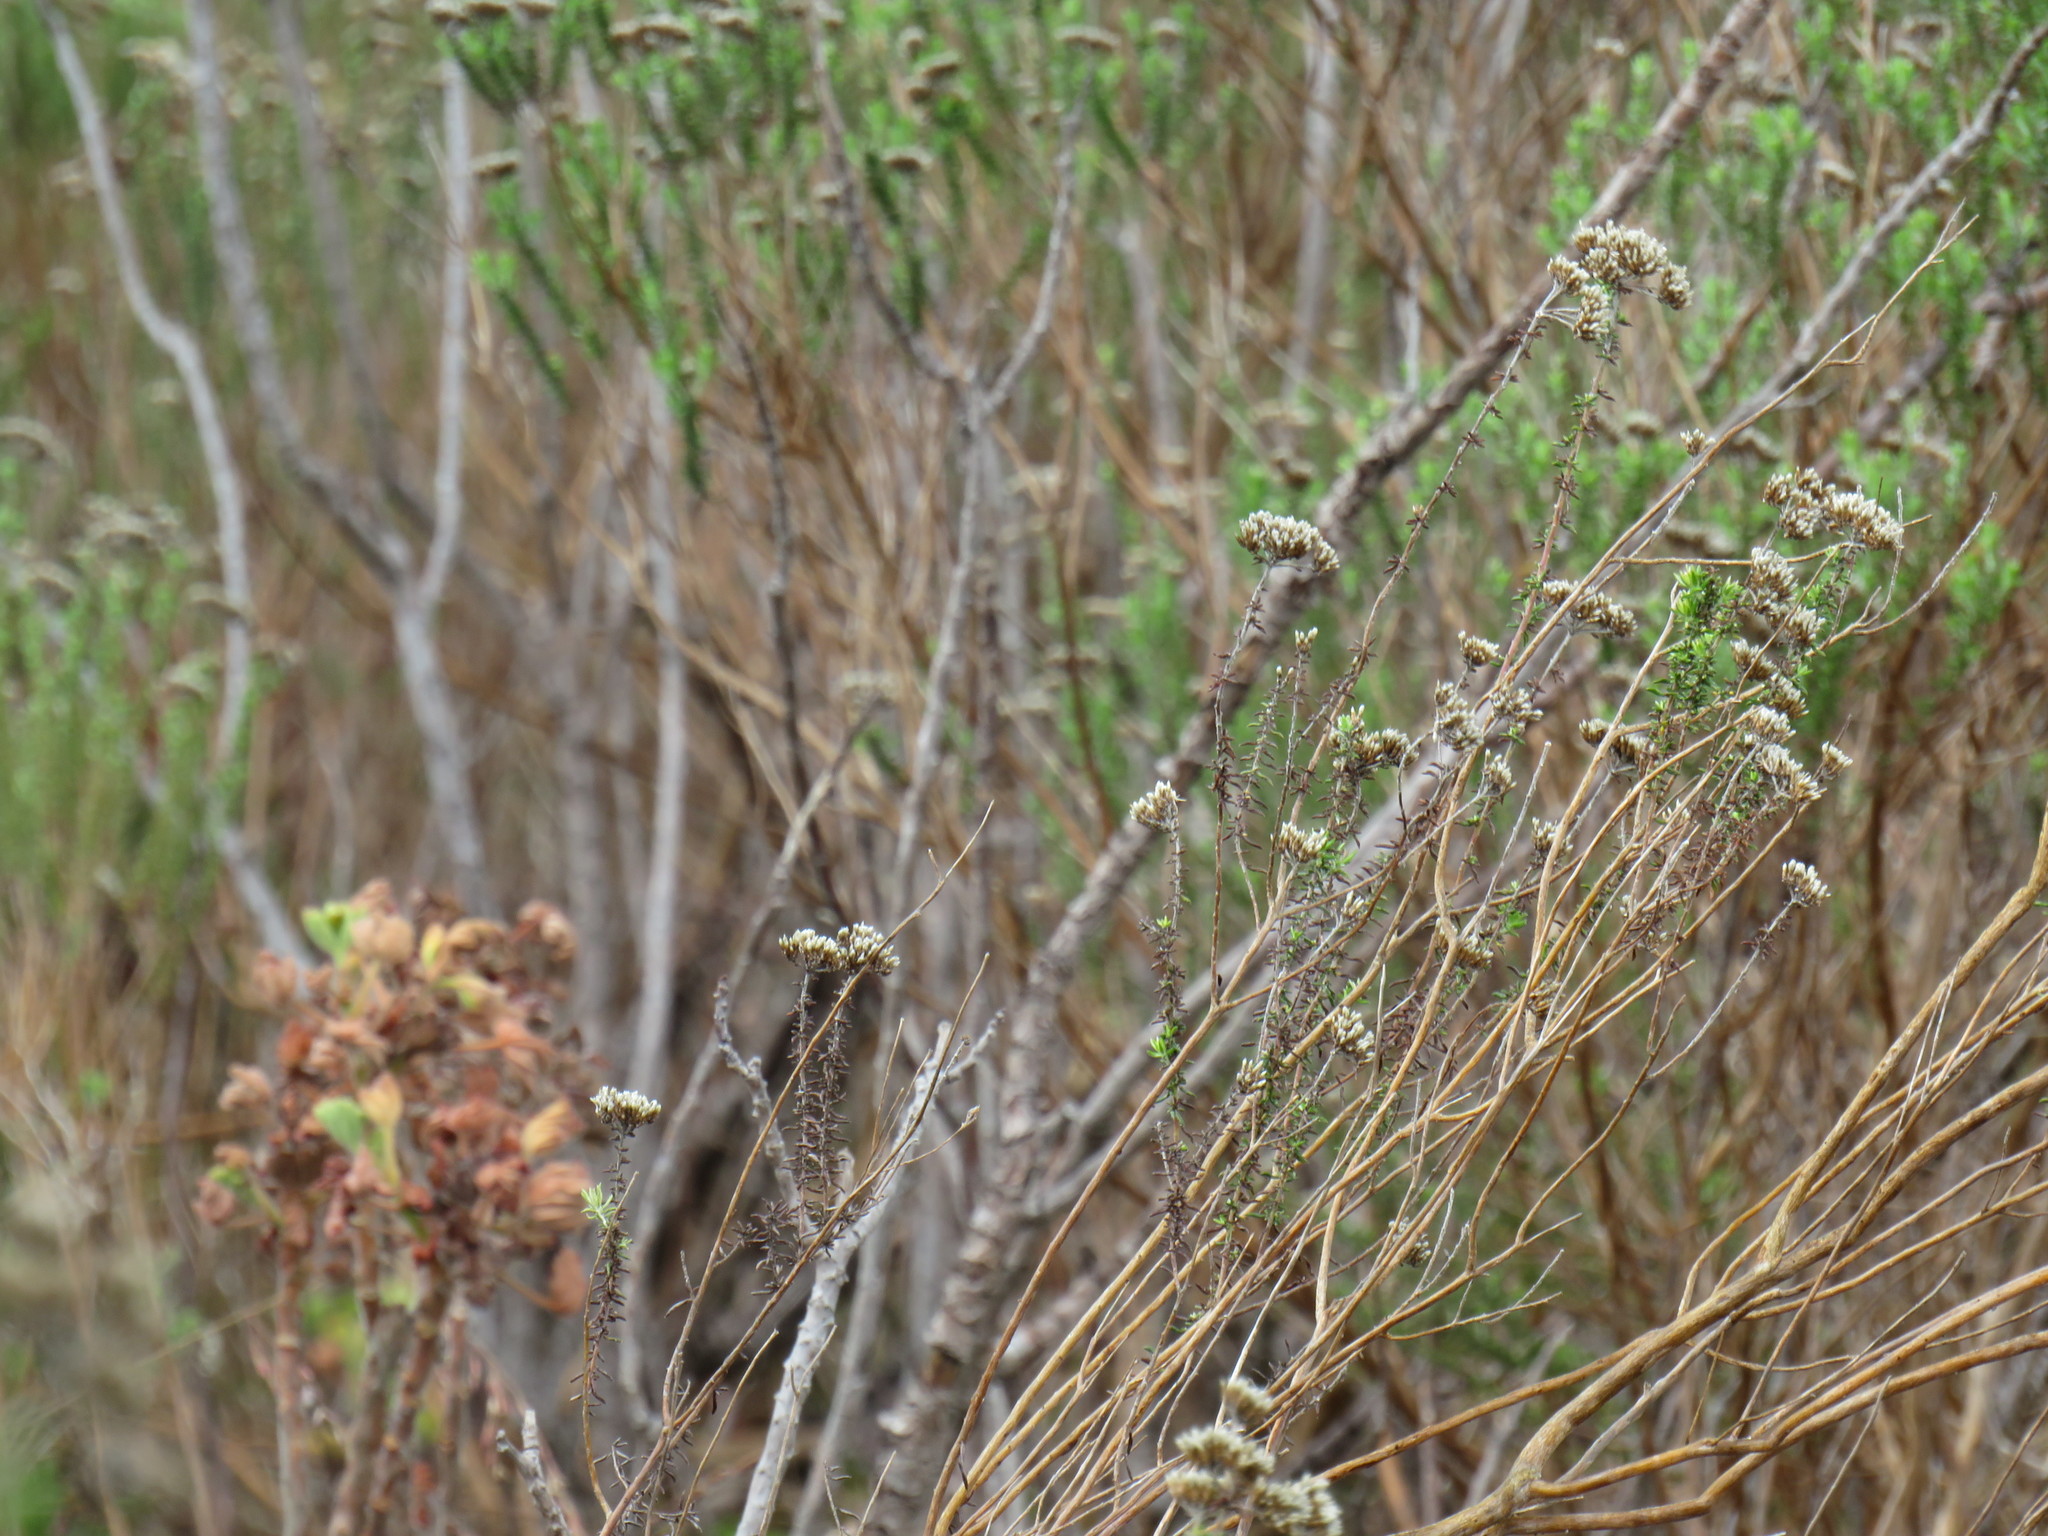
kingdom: Plantae
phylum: Tracheophyta
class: Magnoliopsida
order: Asterales
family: Asteraceae
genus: Metalasia
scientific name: Metalasia densa
